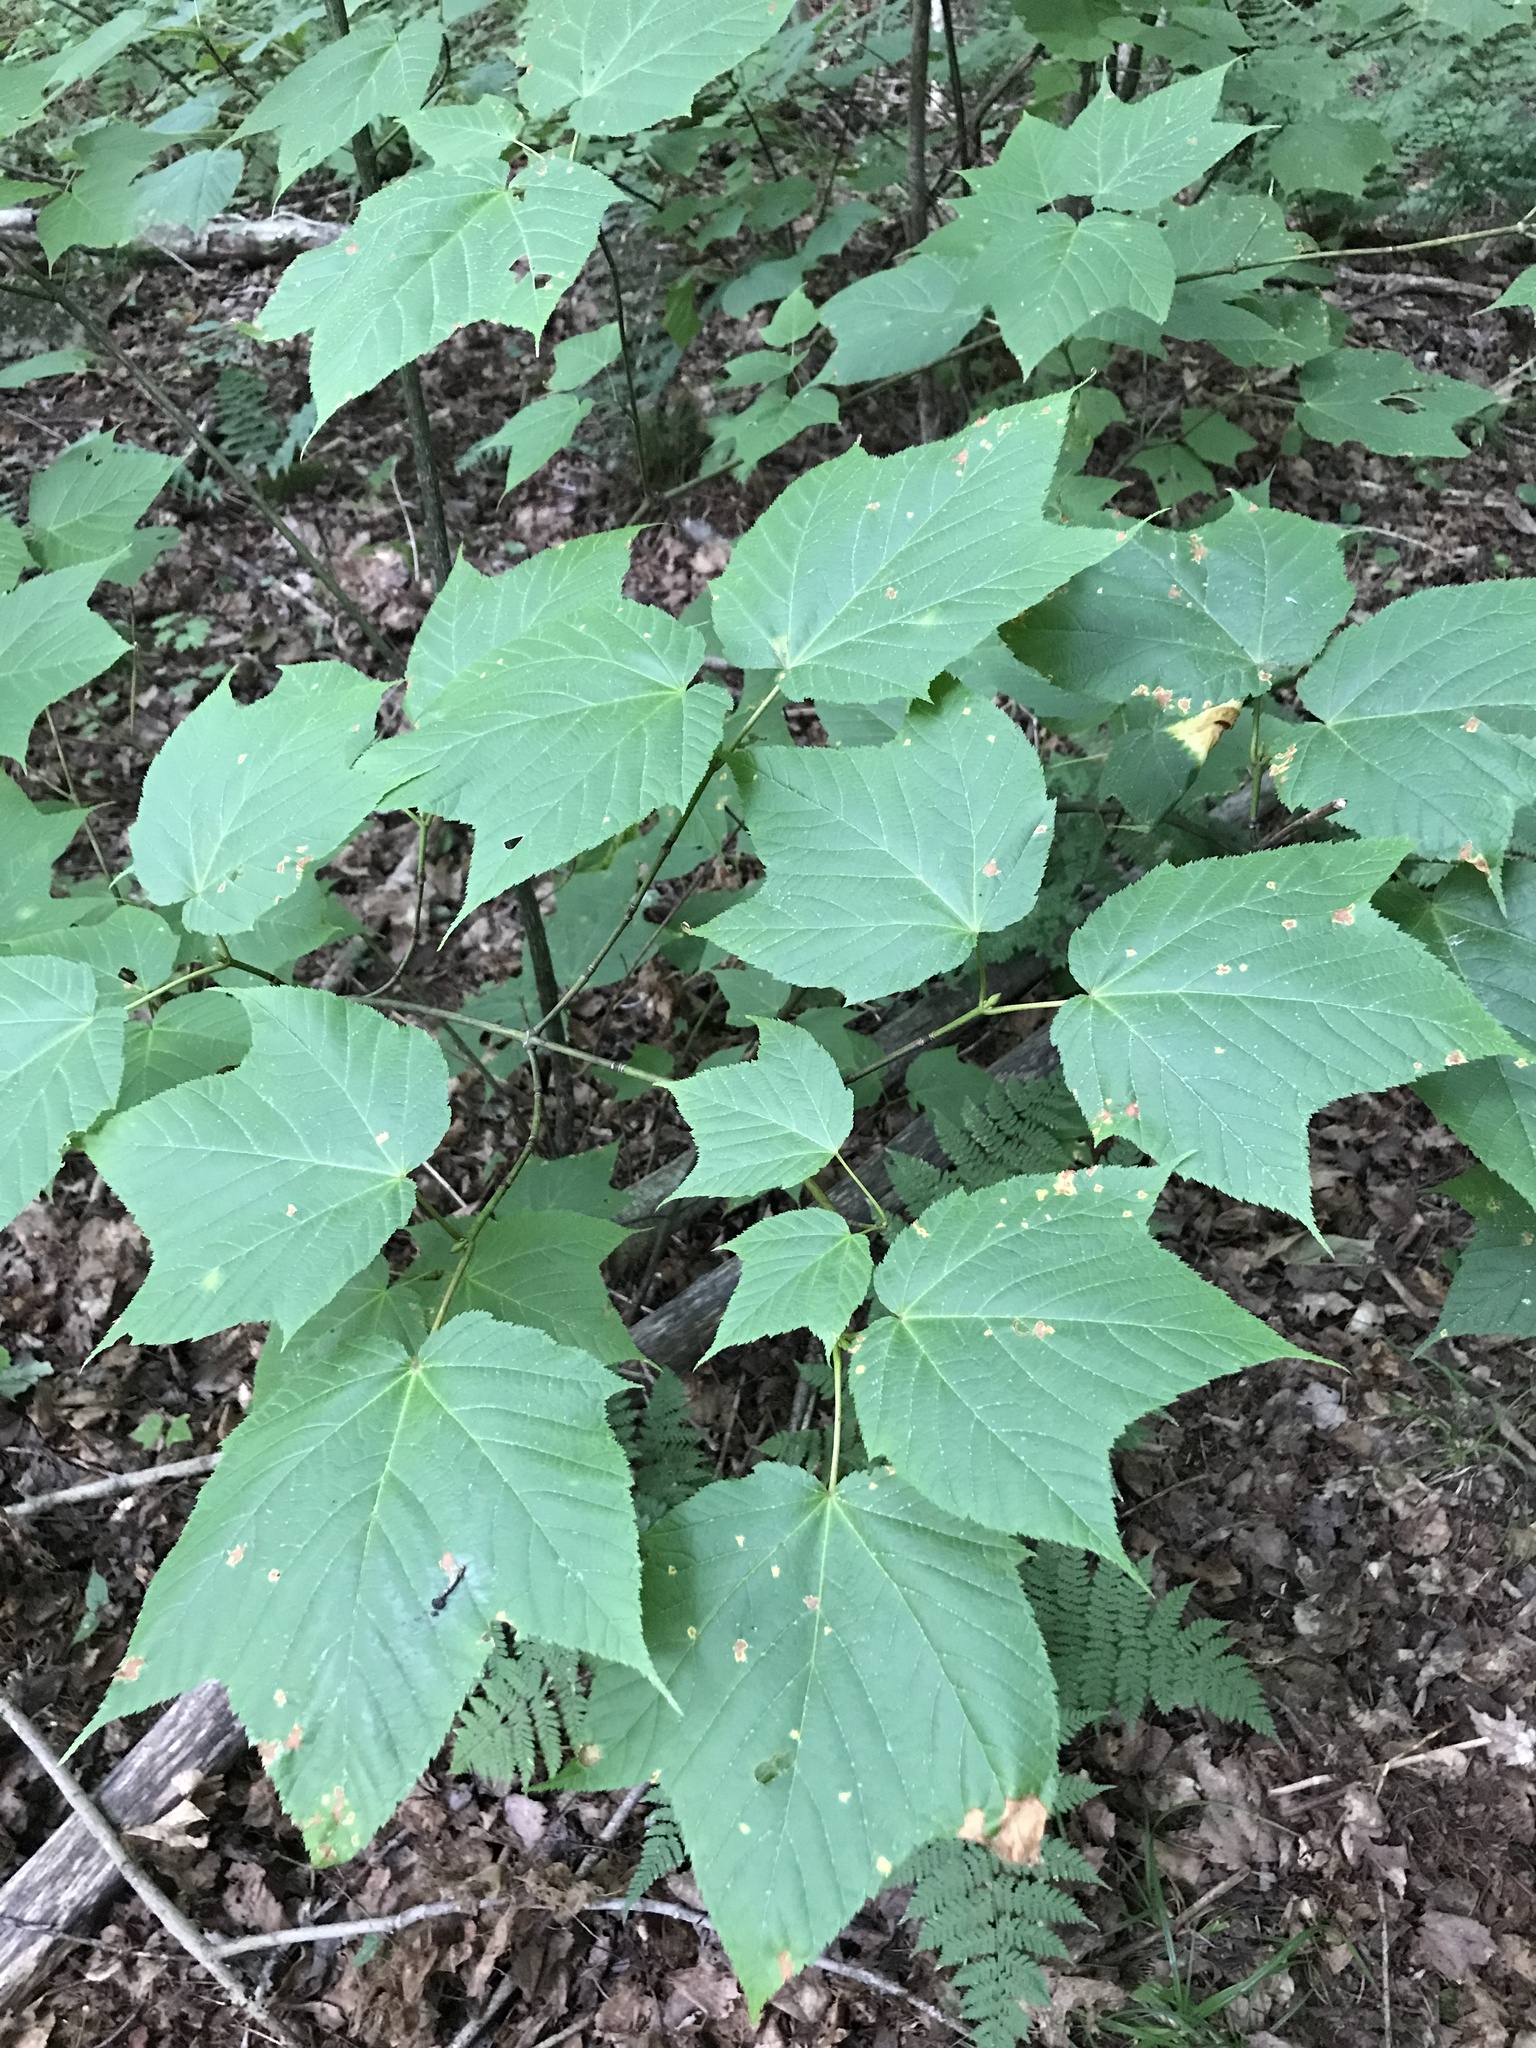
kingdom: Plantae
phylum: Tracheophyta
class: Magnoliopsida
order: Sapindales
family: Sapindaceae
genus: Acer
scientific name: Acer pensylvanicum
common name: Moosewood
